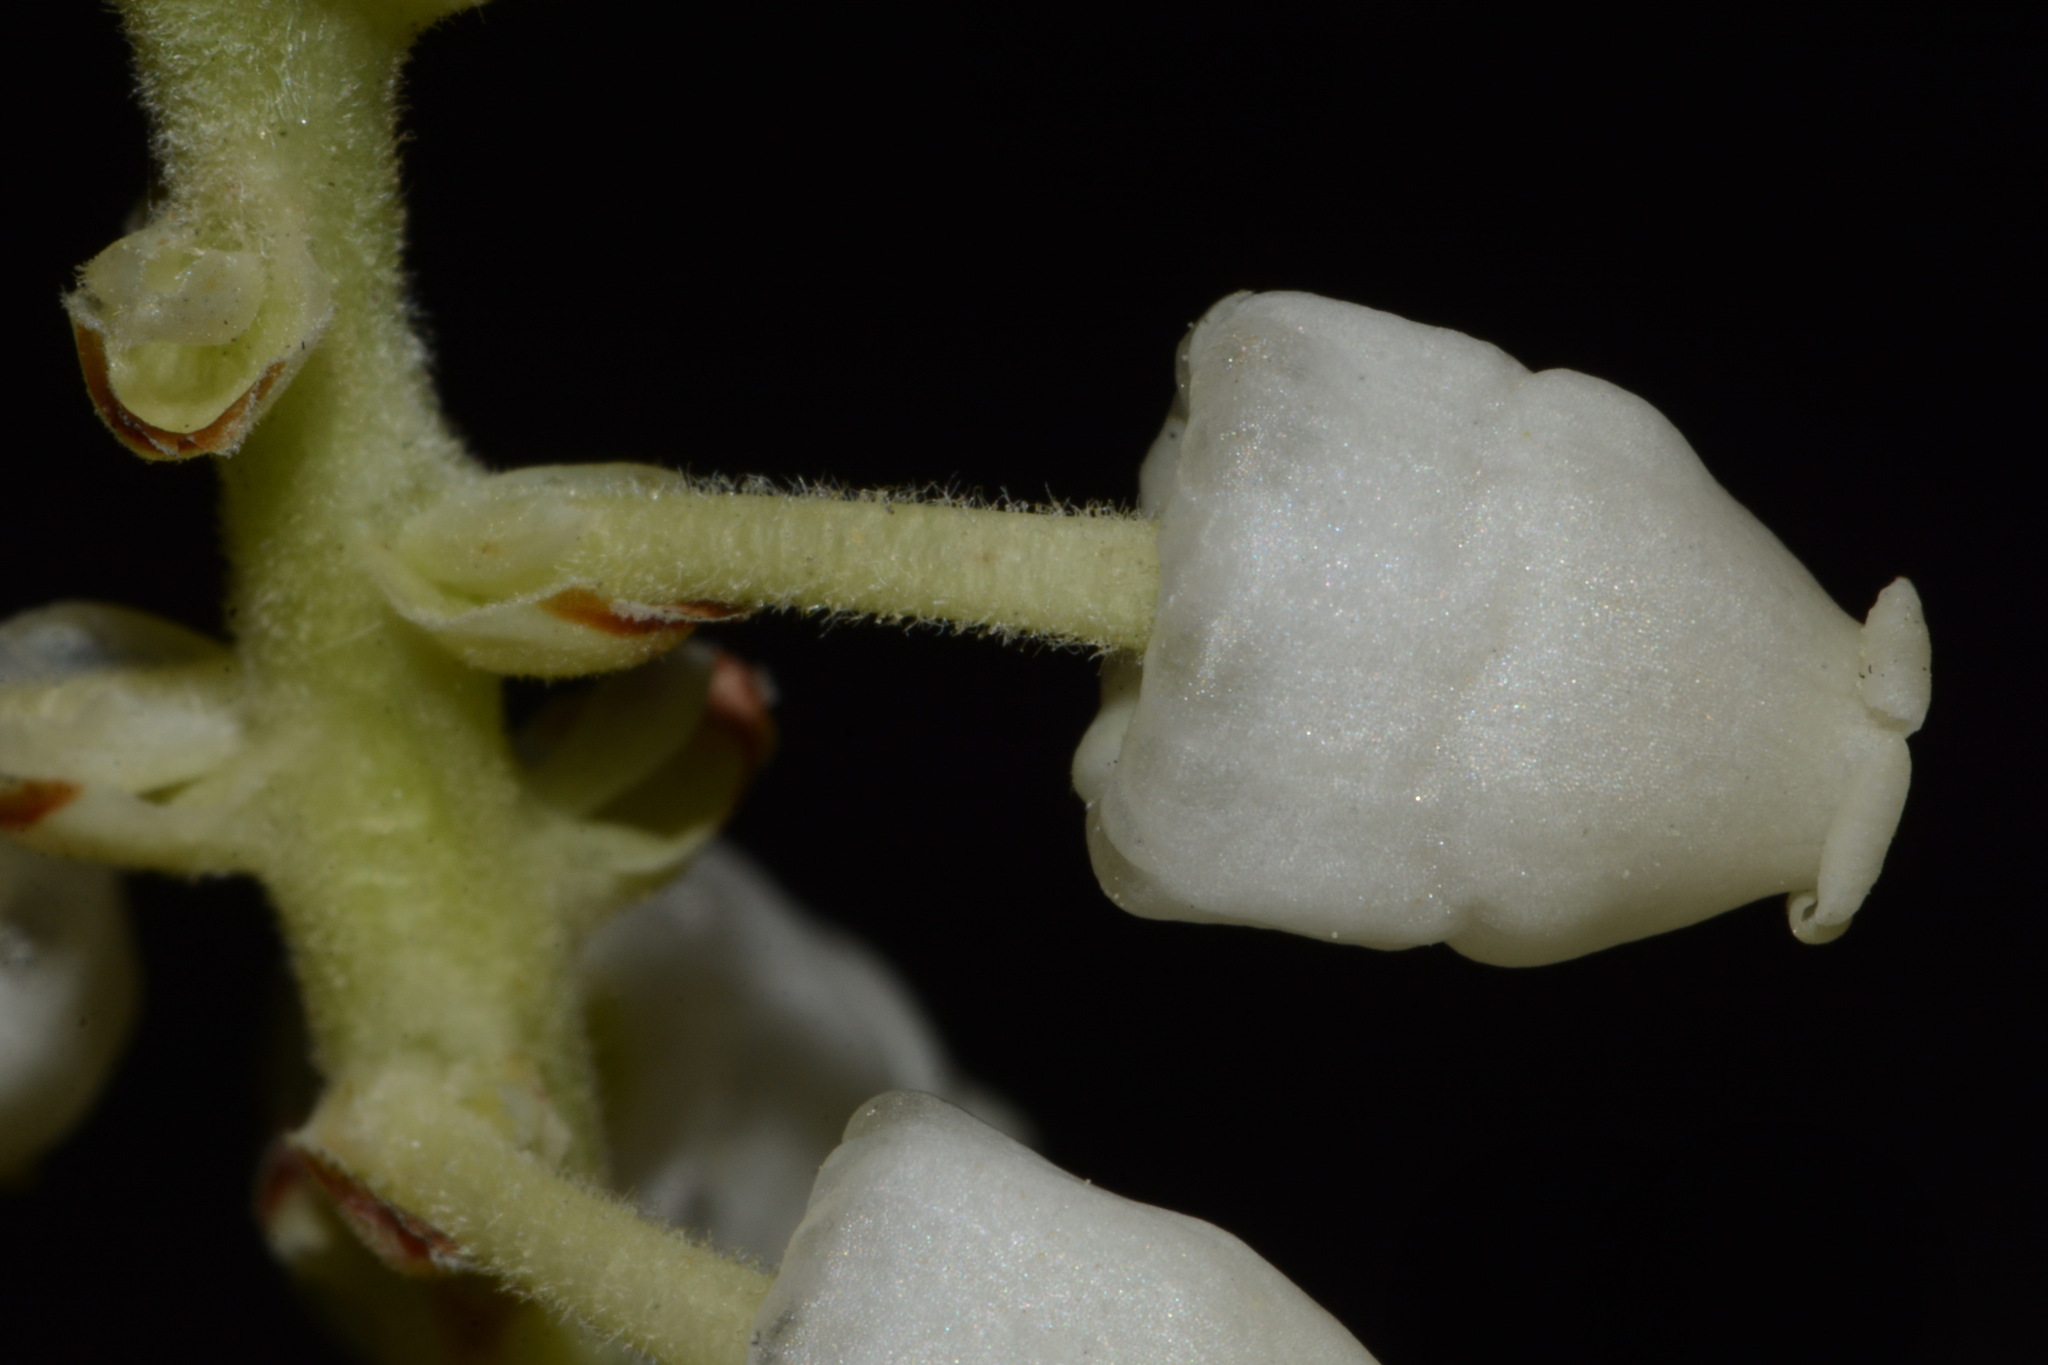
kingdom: Plantae
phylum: Tracheophyta
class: Magnoliopsida
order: Ericales
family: Ericaceae
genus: Arbutus
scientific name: Arbutus xalapensis
